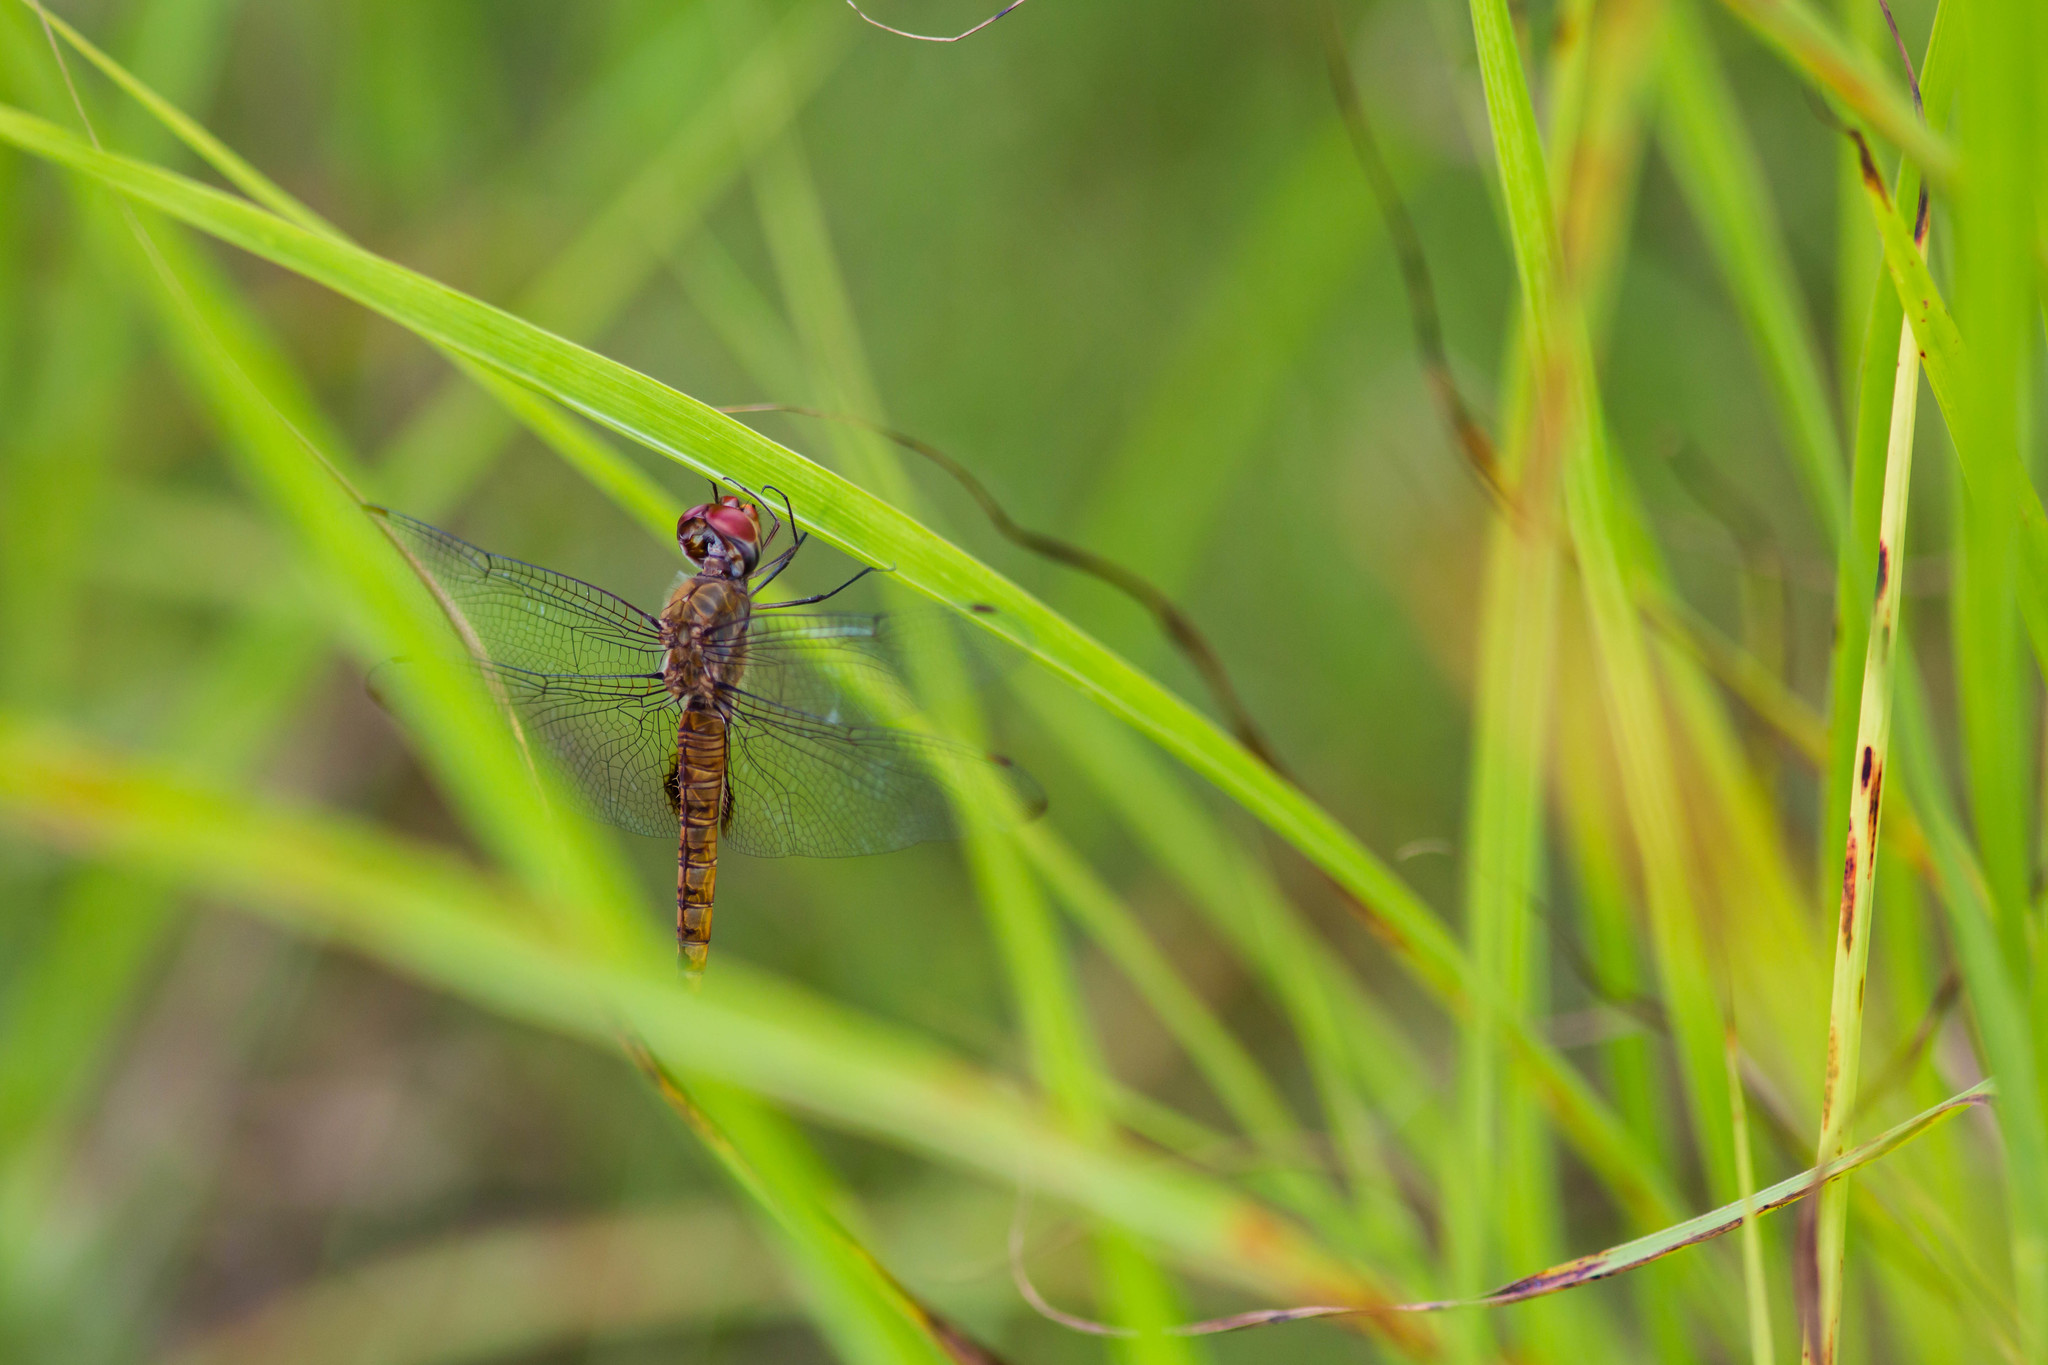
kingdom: Animalia
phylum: Arthropoda
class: Insecta
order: Odonata
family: Libellulidae
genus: Pantala
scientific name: Pantala hymenaea
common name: Spot-winged glider
